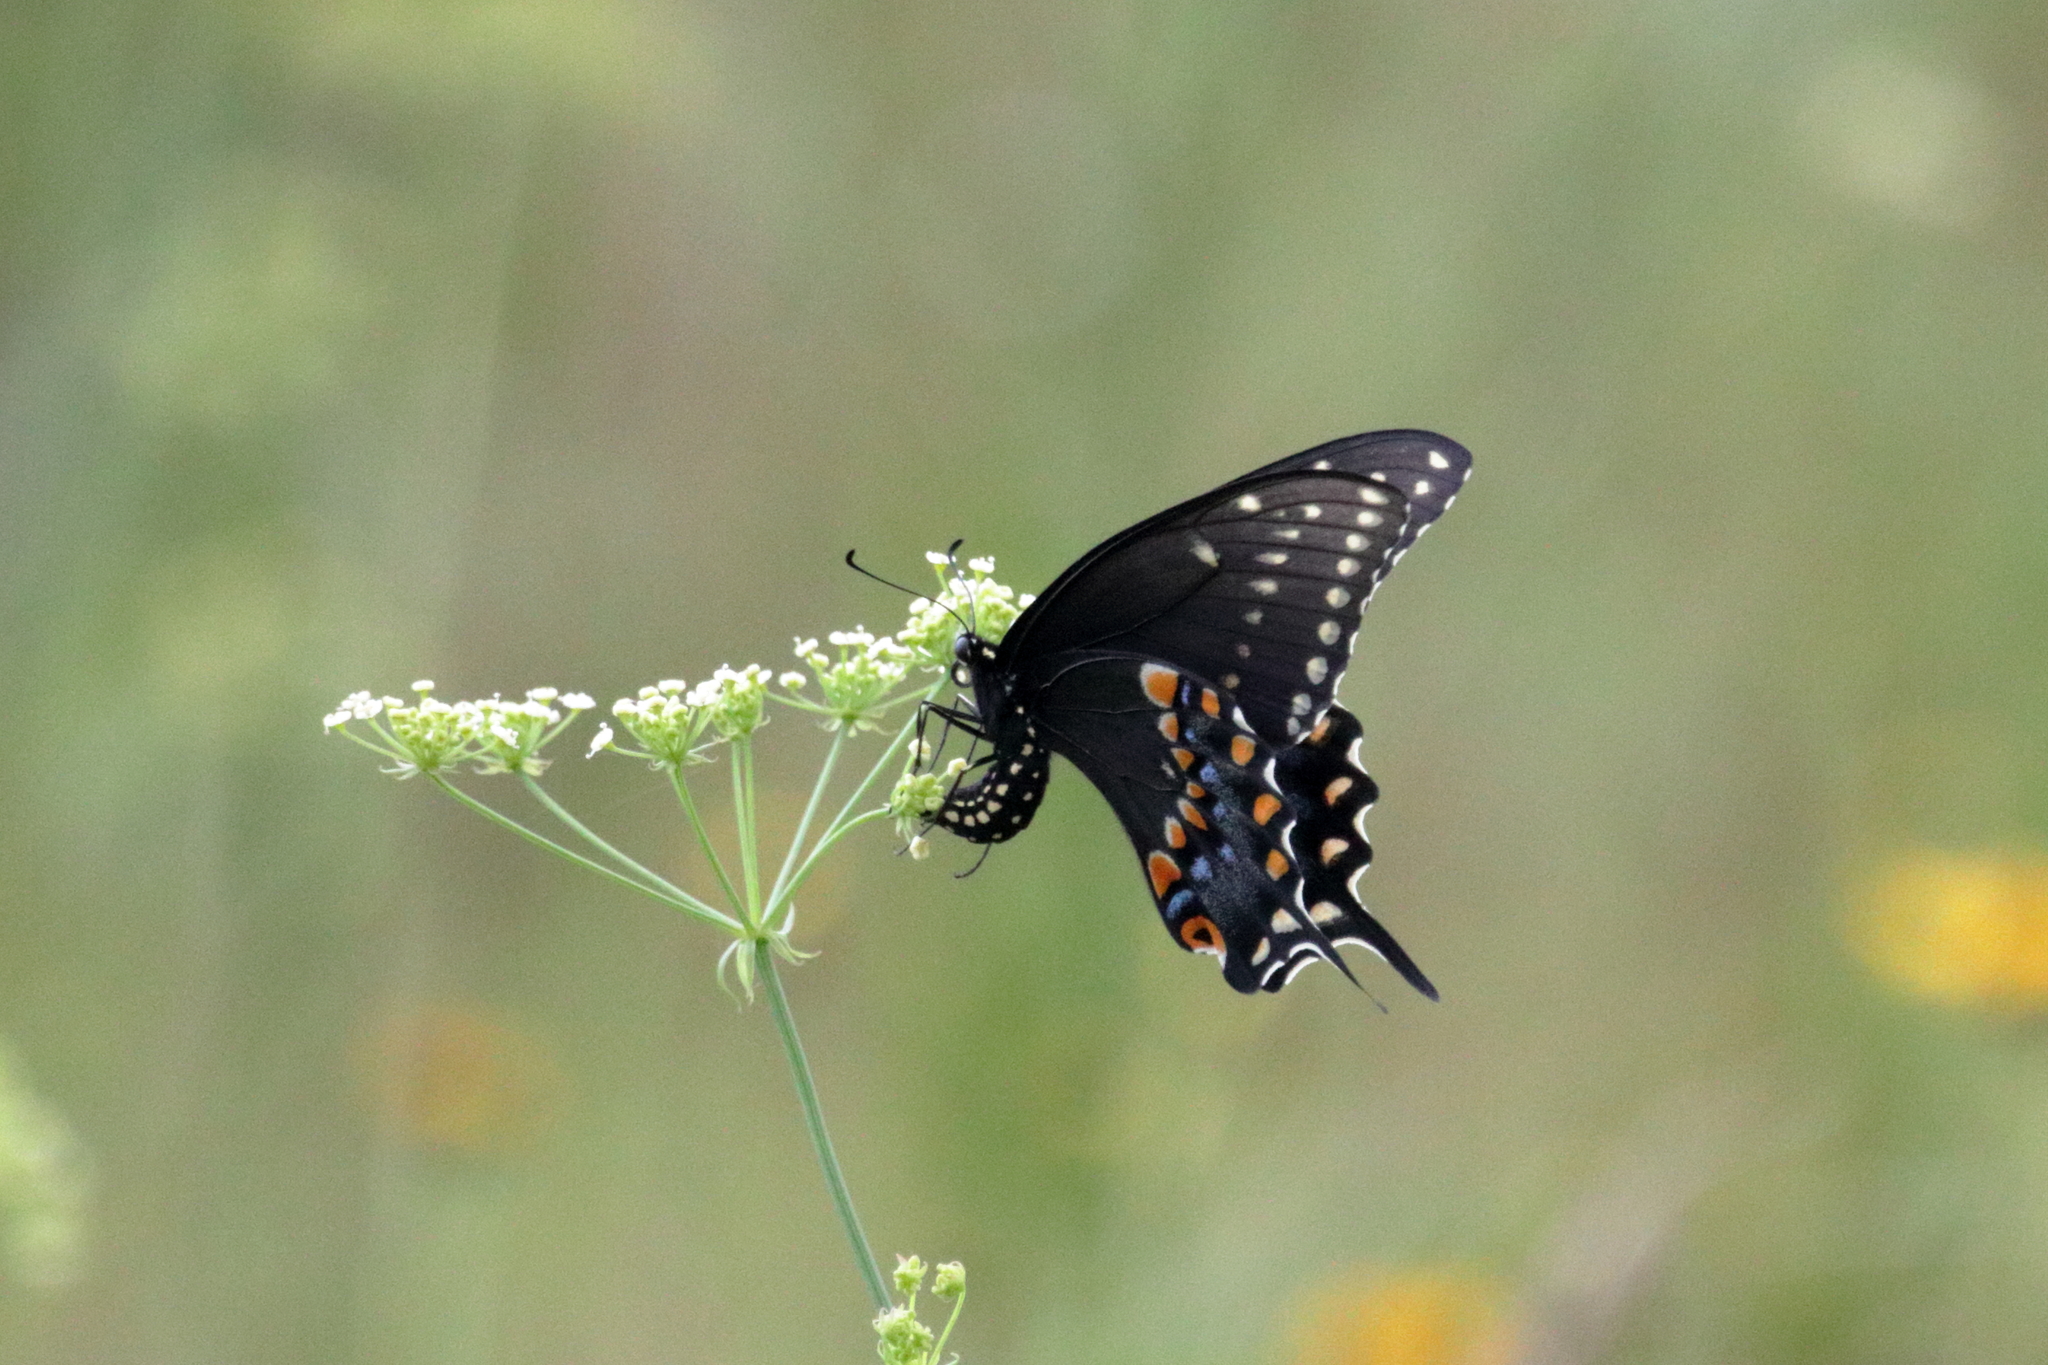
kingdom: Animalia
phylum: Arthropoda
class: Insecta
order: Lepidoptera
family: Papilionidae
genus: Papilio
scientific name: Papilio polyxenes
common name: Black swallowtail
